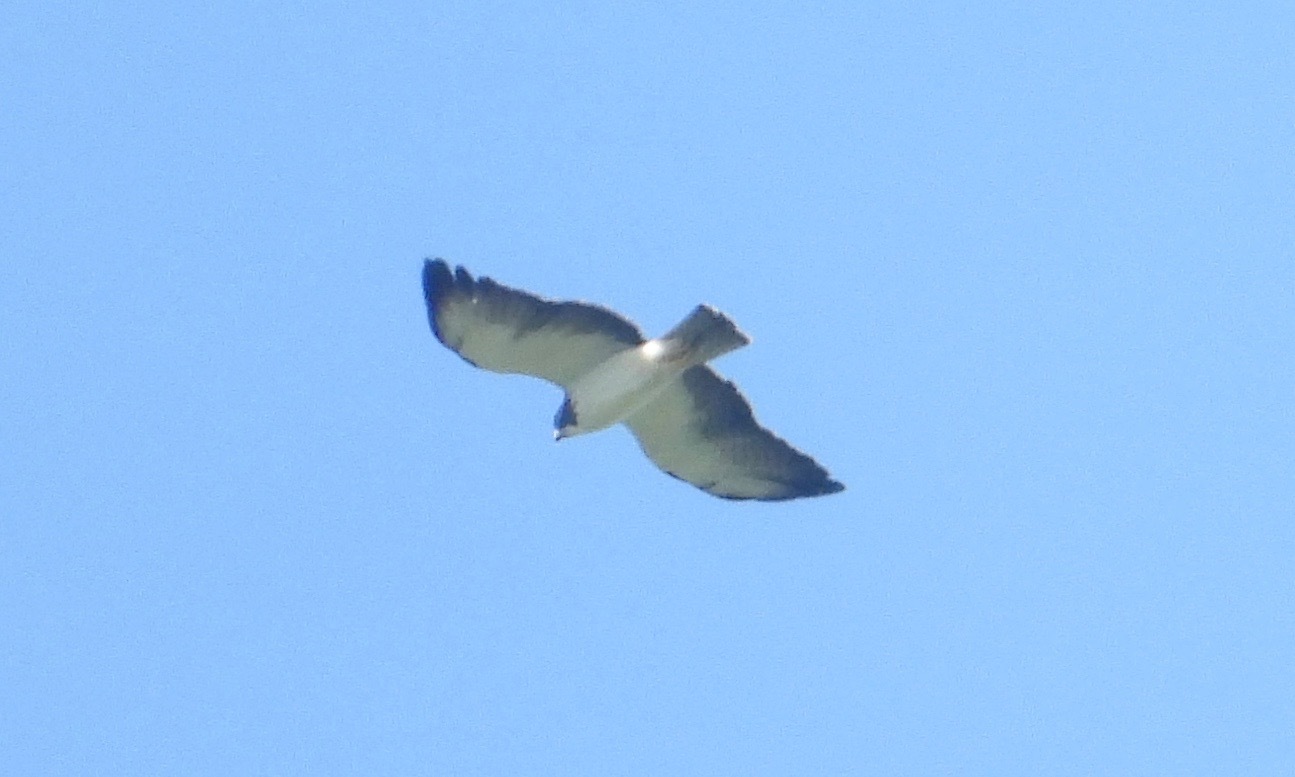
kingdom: Animalia
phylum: Chordata
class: Aves
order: Accipitriformes
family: Accipitridae
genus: Buteo
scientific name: Buteo brachyurus
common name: Short-tailed hawk
